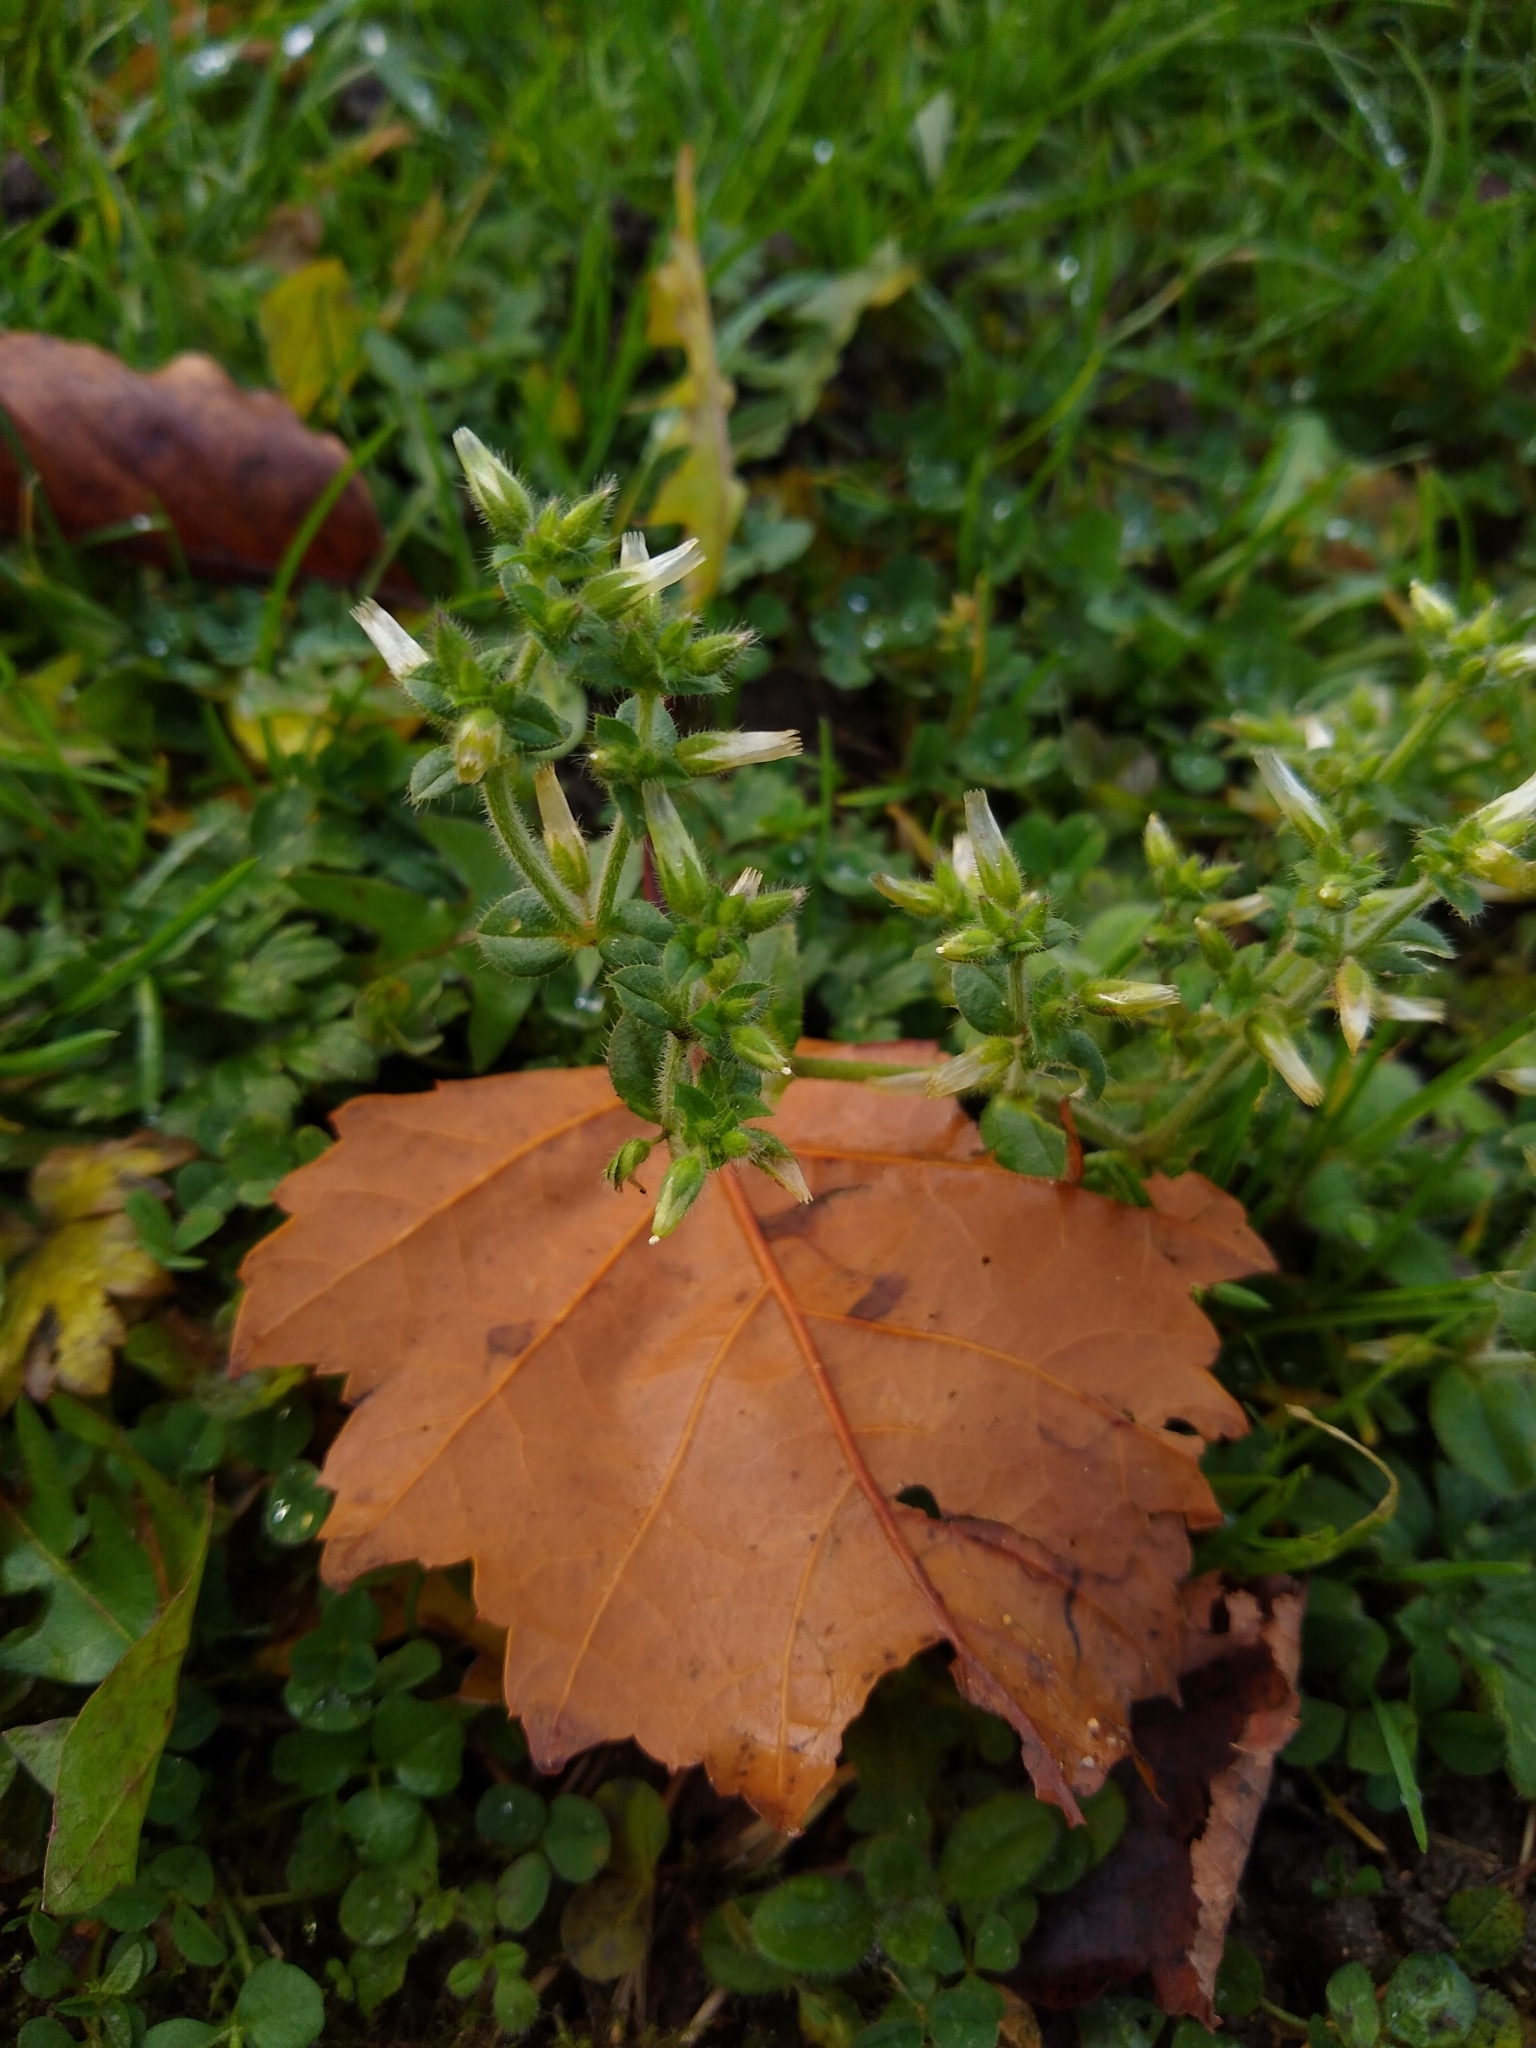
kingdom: Plantae
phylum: Tracheophyta
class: Magnoliopsida
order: Caryophyllales
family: Caryophyllaceae
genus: Cerastium
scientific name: Cerastium glomeratum
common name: Sticky chickweed
